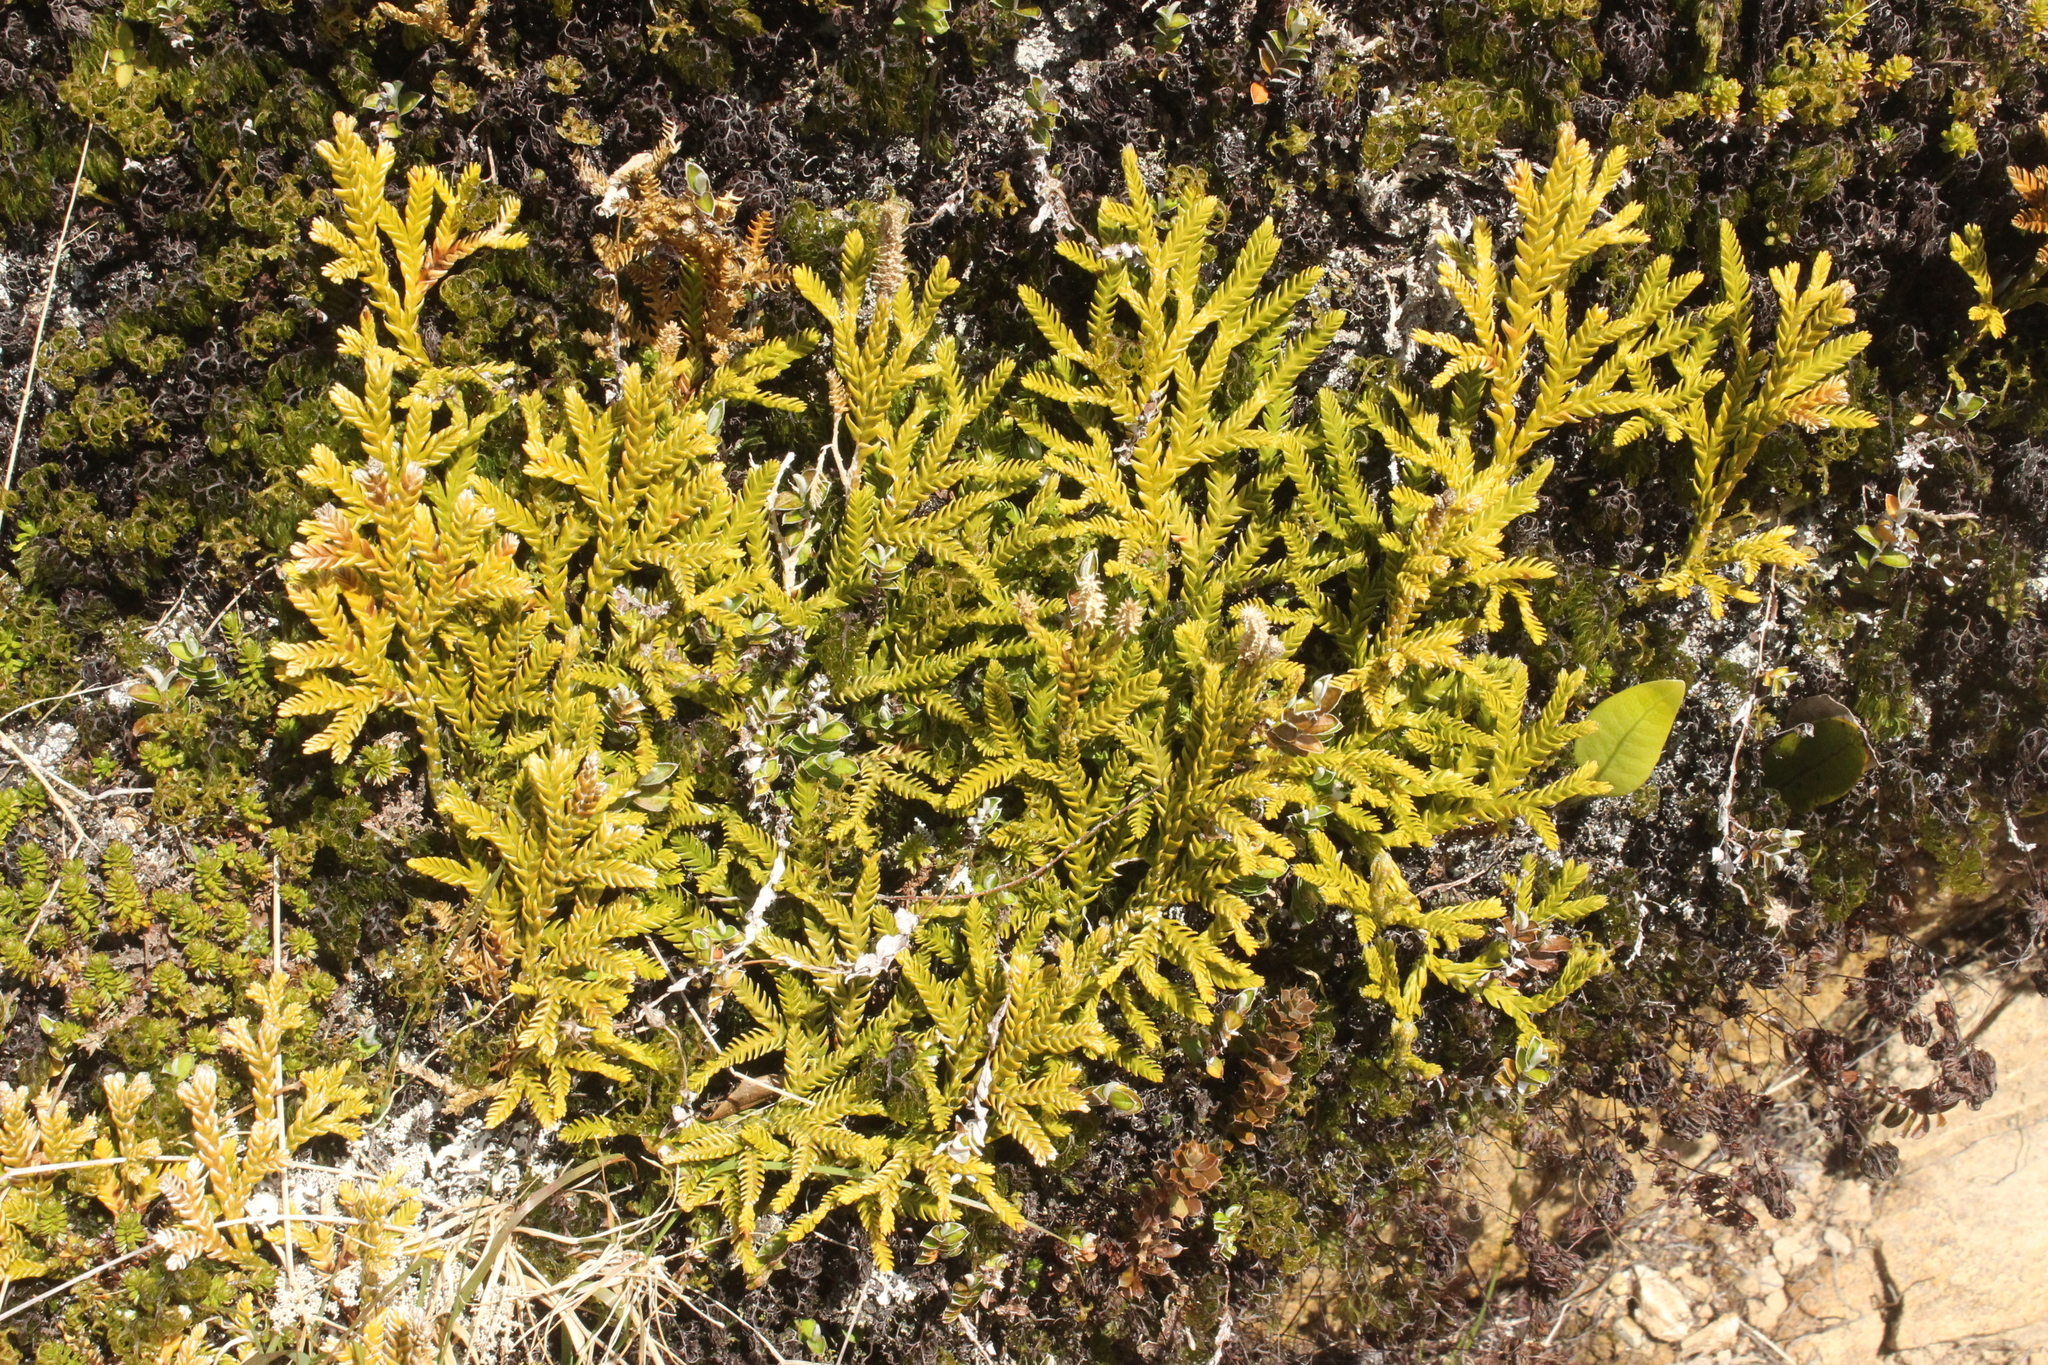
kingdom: Plantae
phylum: Tracheophyta
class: Lycopodiopsida
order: Lycopodiales
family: Lycopodiaceae
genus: Diphasium
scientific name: Diphasium scariosum
